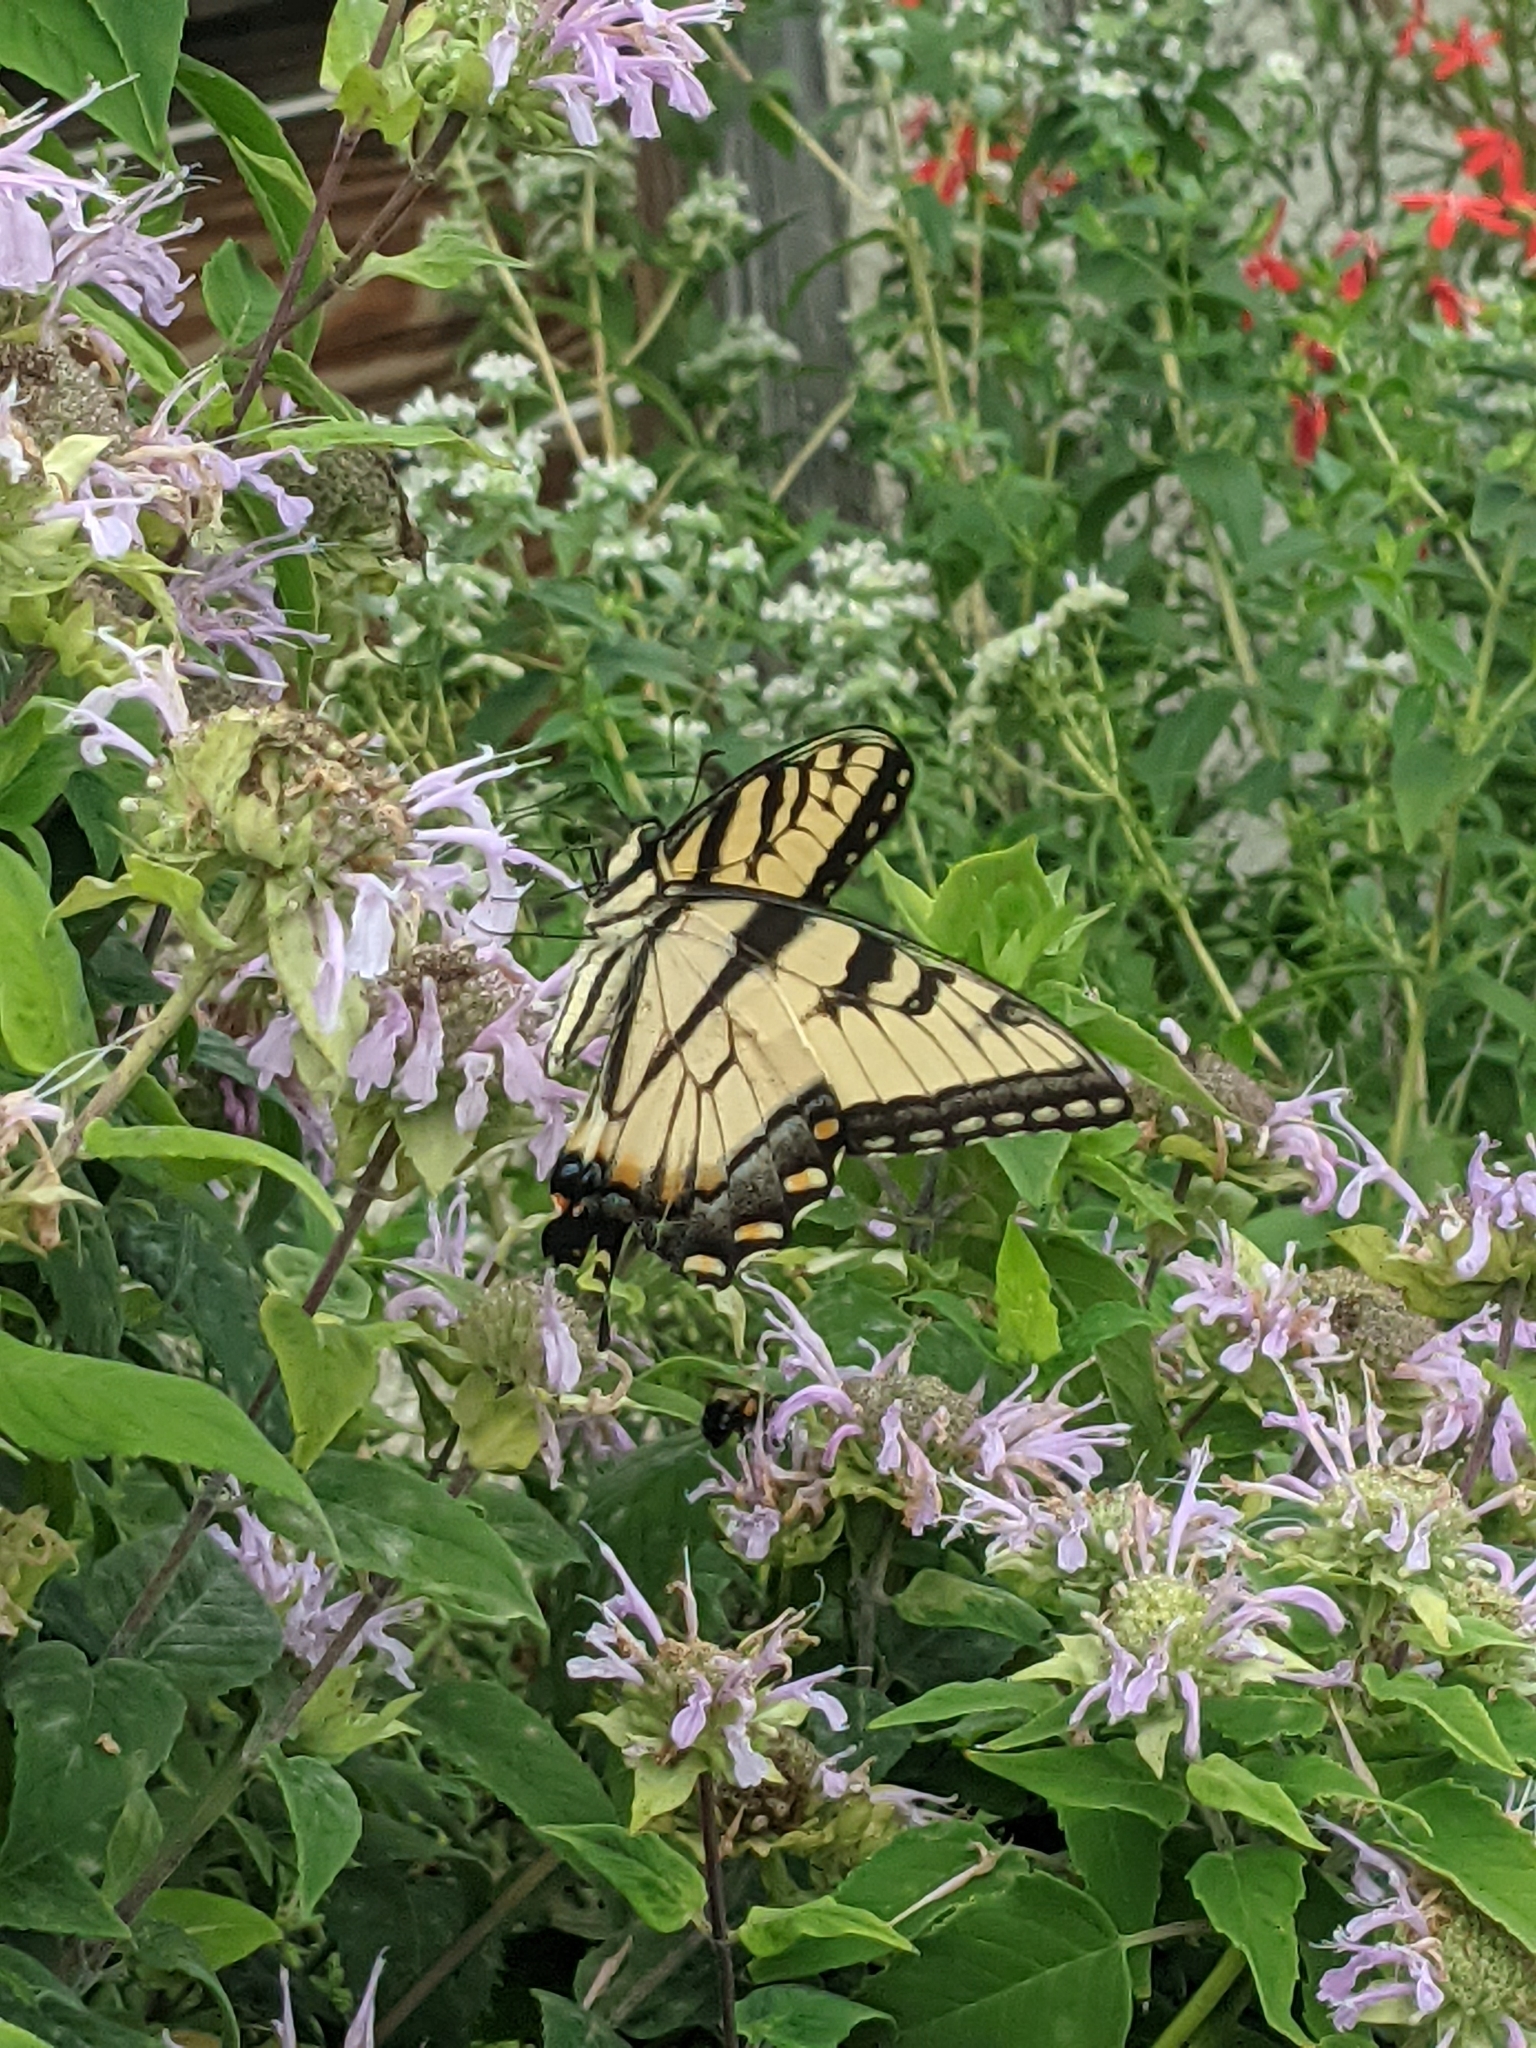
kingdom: Animalia
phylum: Arthropoda
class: Insecta
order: Lepidoptera
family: Papilionidae
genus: Papilio
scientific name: Papilio glaucus
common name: Tiger swallowtail
